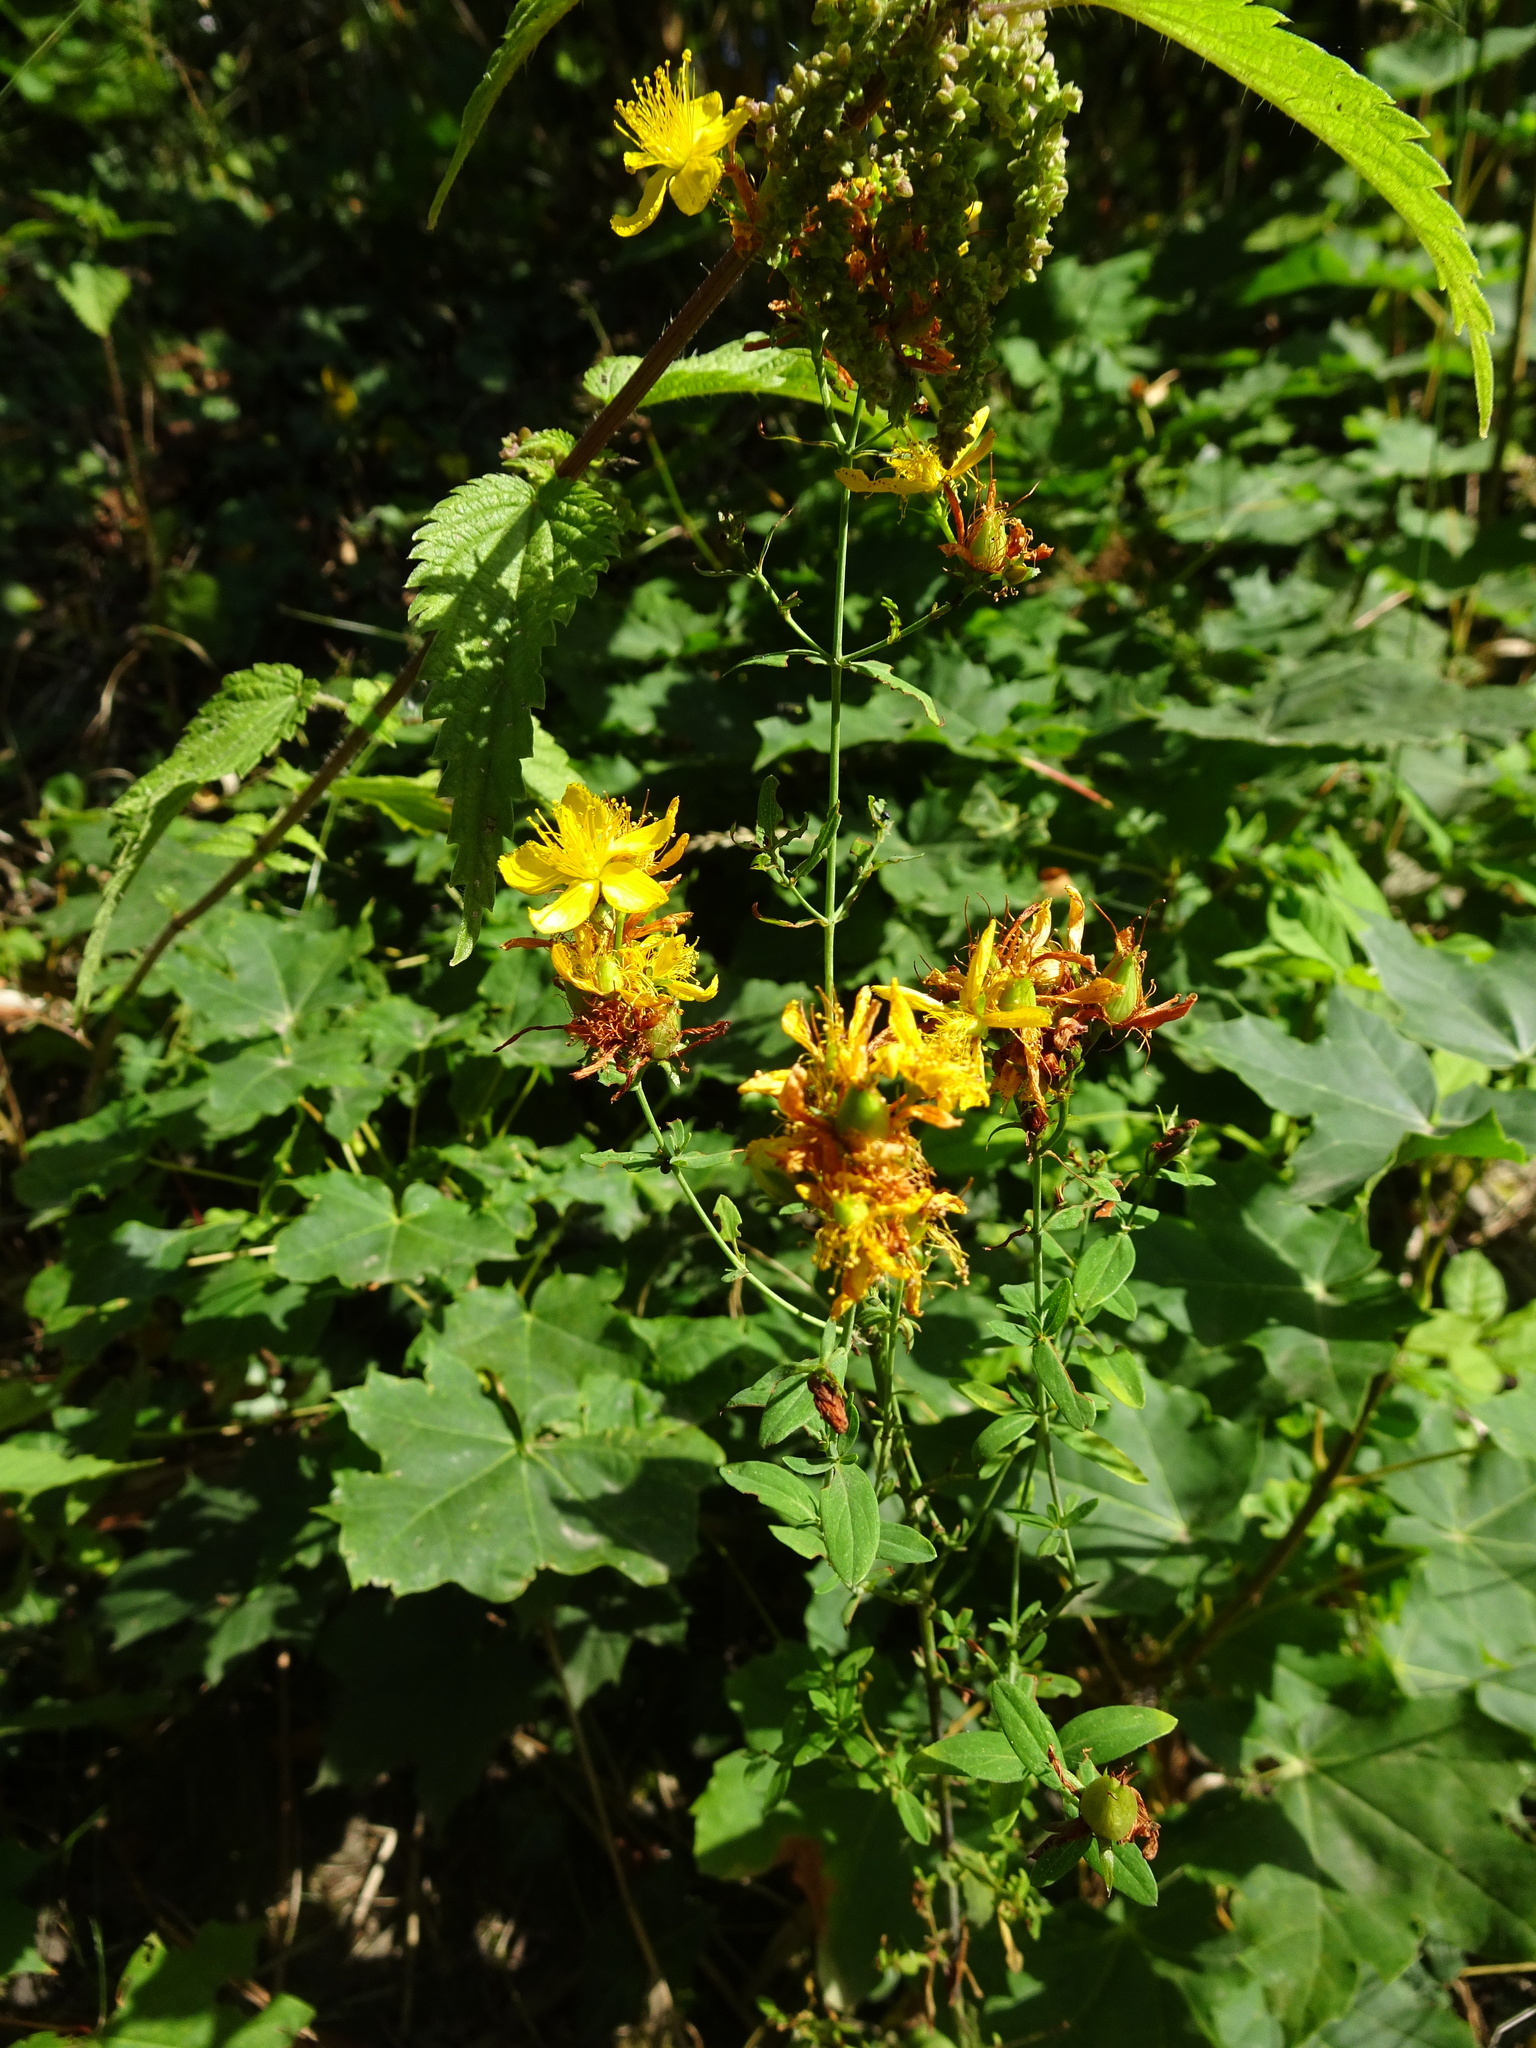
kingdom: Plantae
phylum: Tracheophyta
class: Magnoliopsida
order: Malpighiales
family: Hypericaceae
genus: Hypericum
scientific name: Hypericum perforatum
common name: Common st. johnswort
